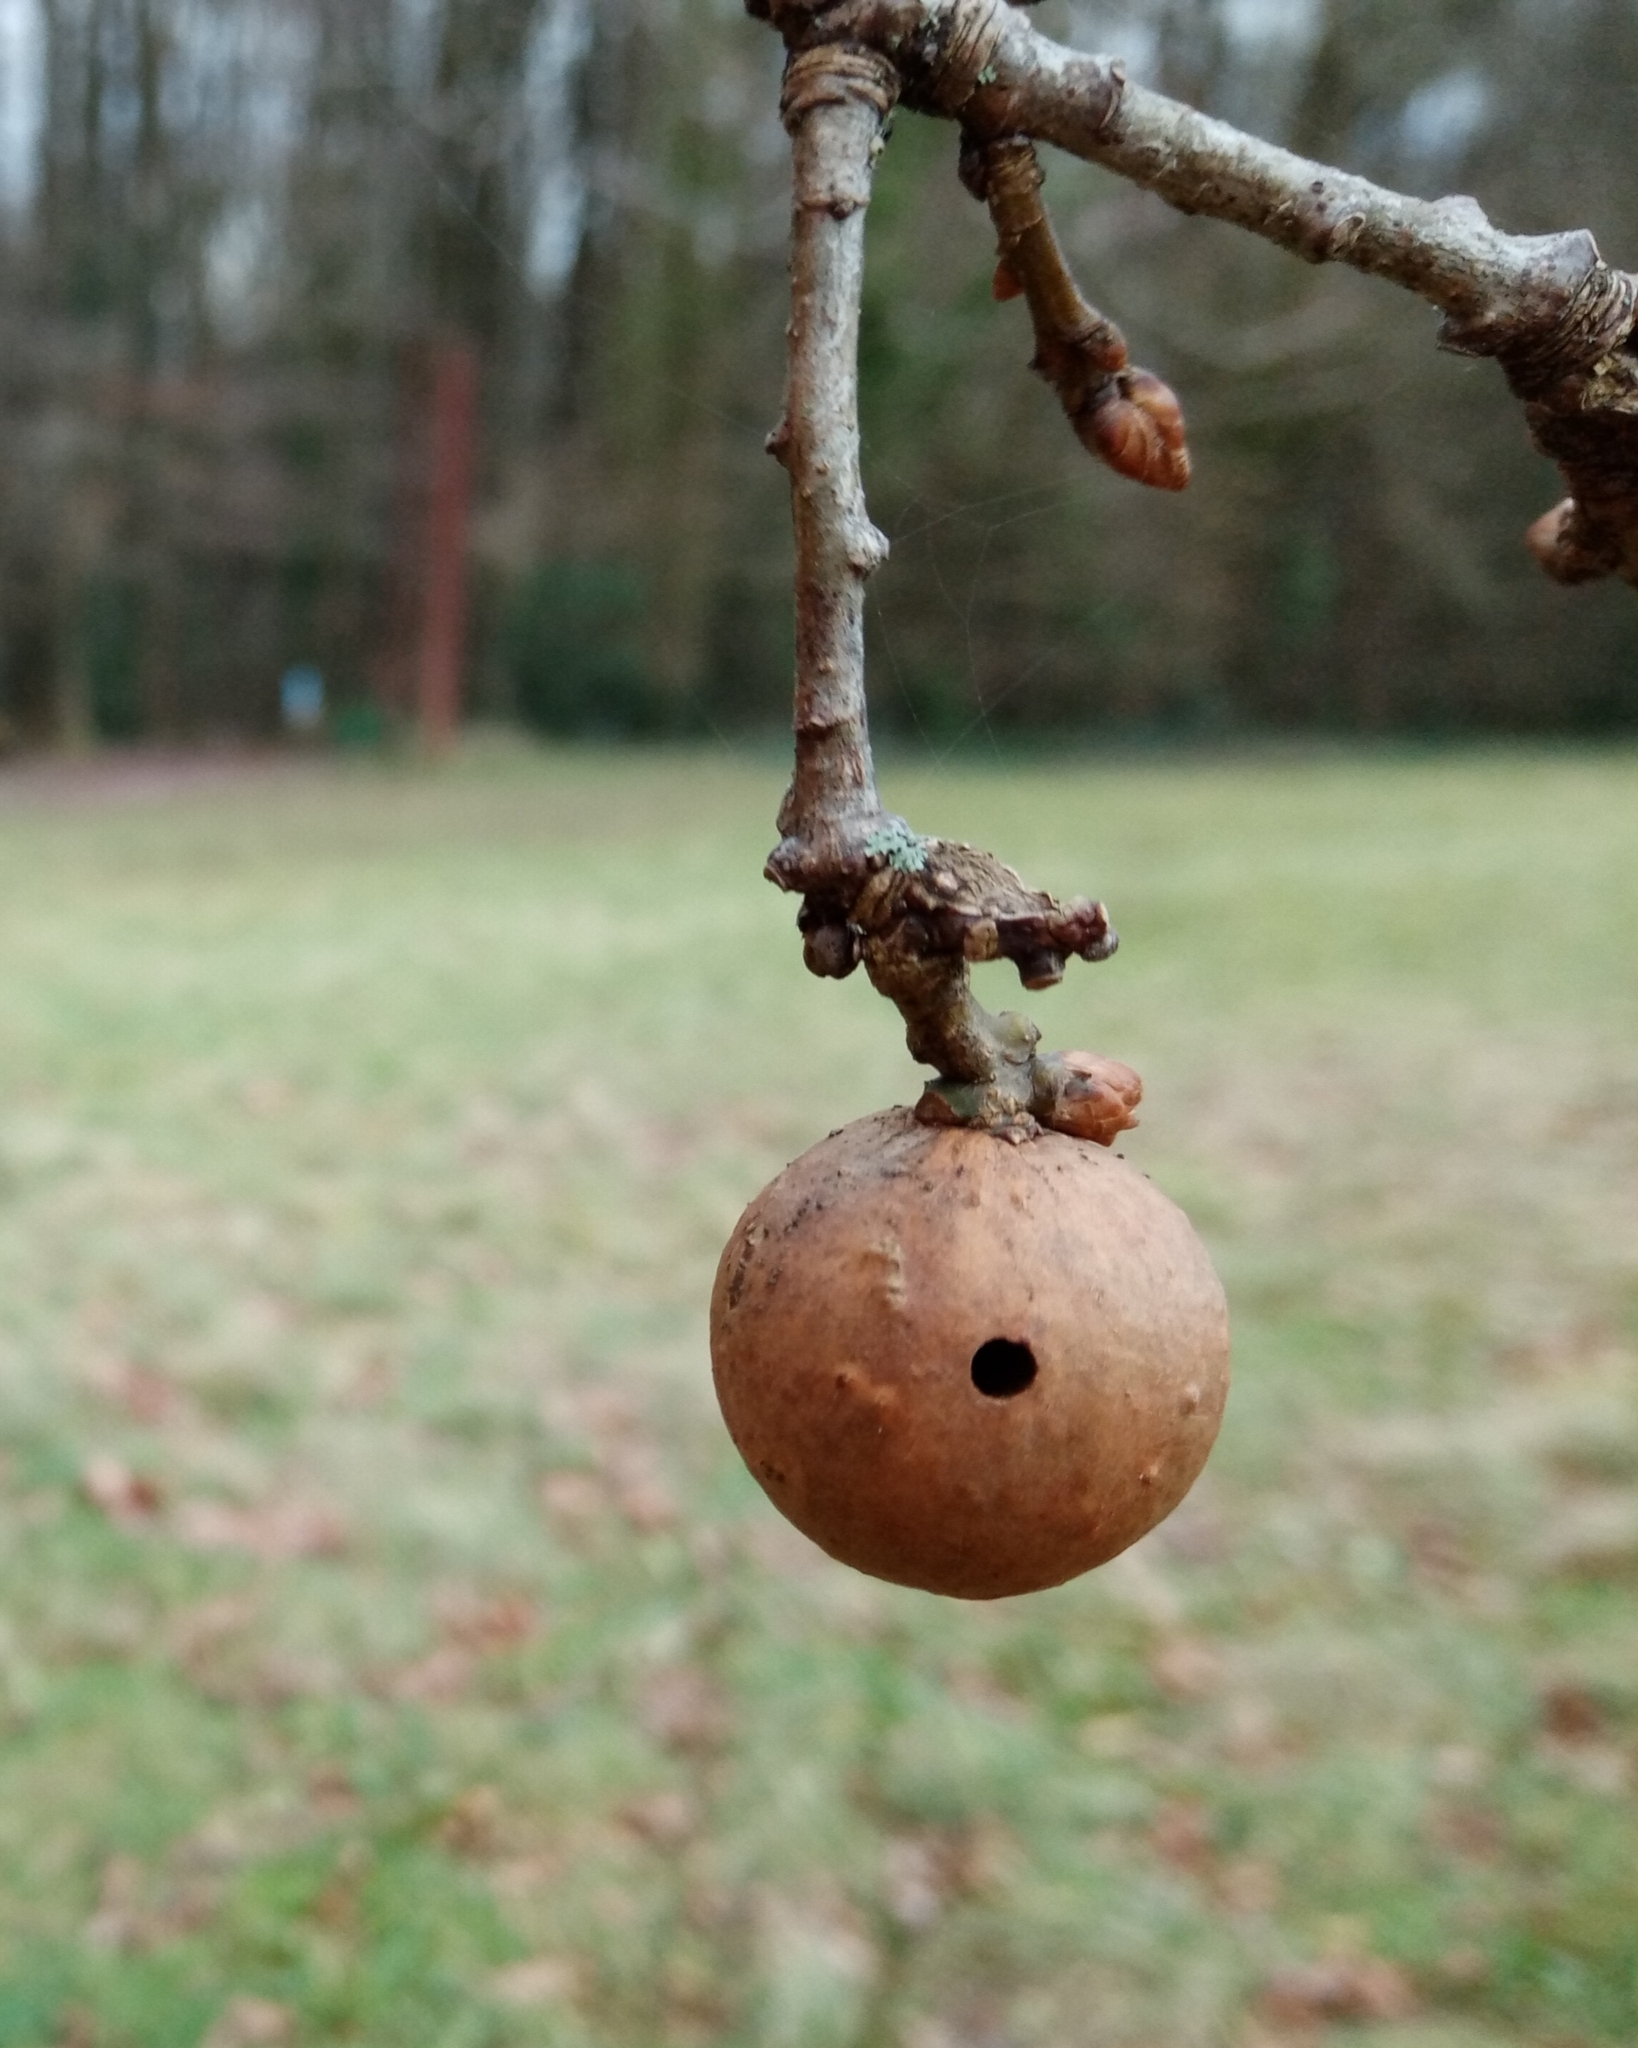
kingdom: Animalia
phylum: Arthropoda
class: Insecta
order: Hymenoptera
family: Cynipidae
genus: Andricus
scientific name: Andricus kollari
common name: Marble gall
